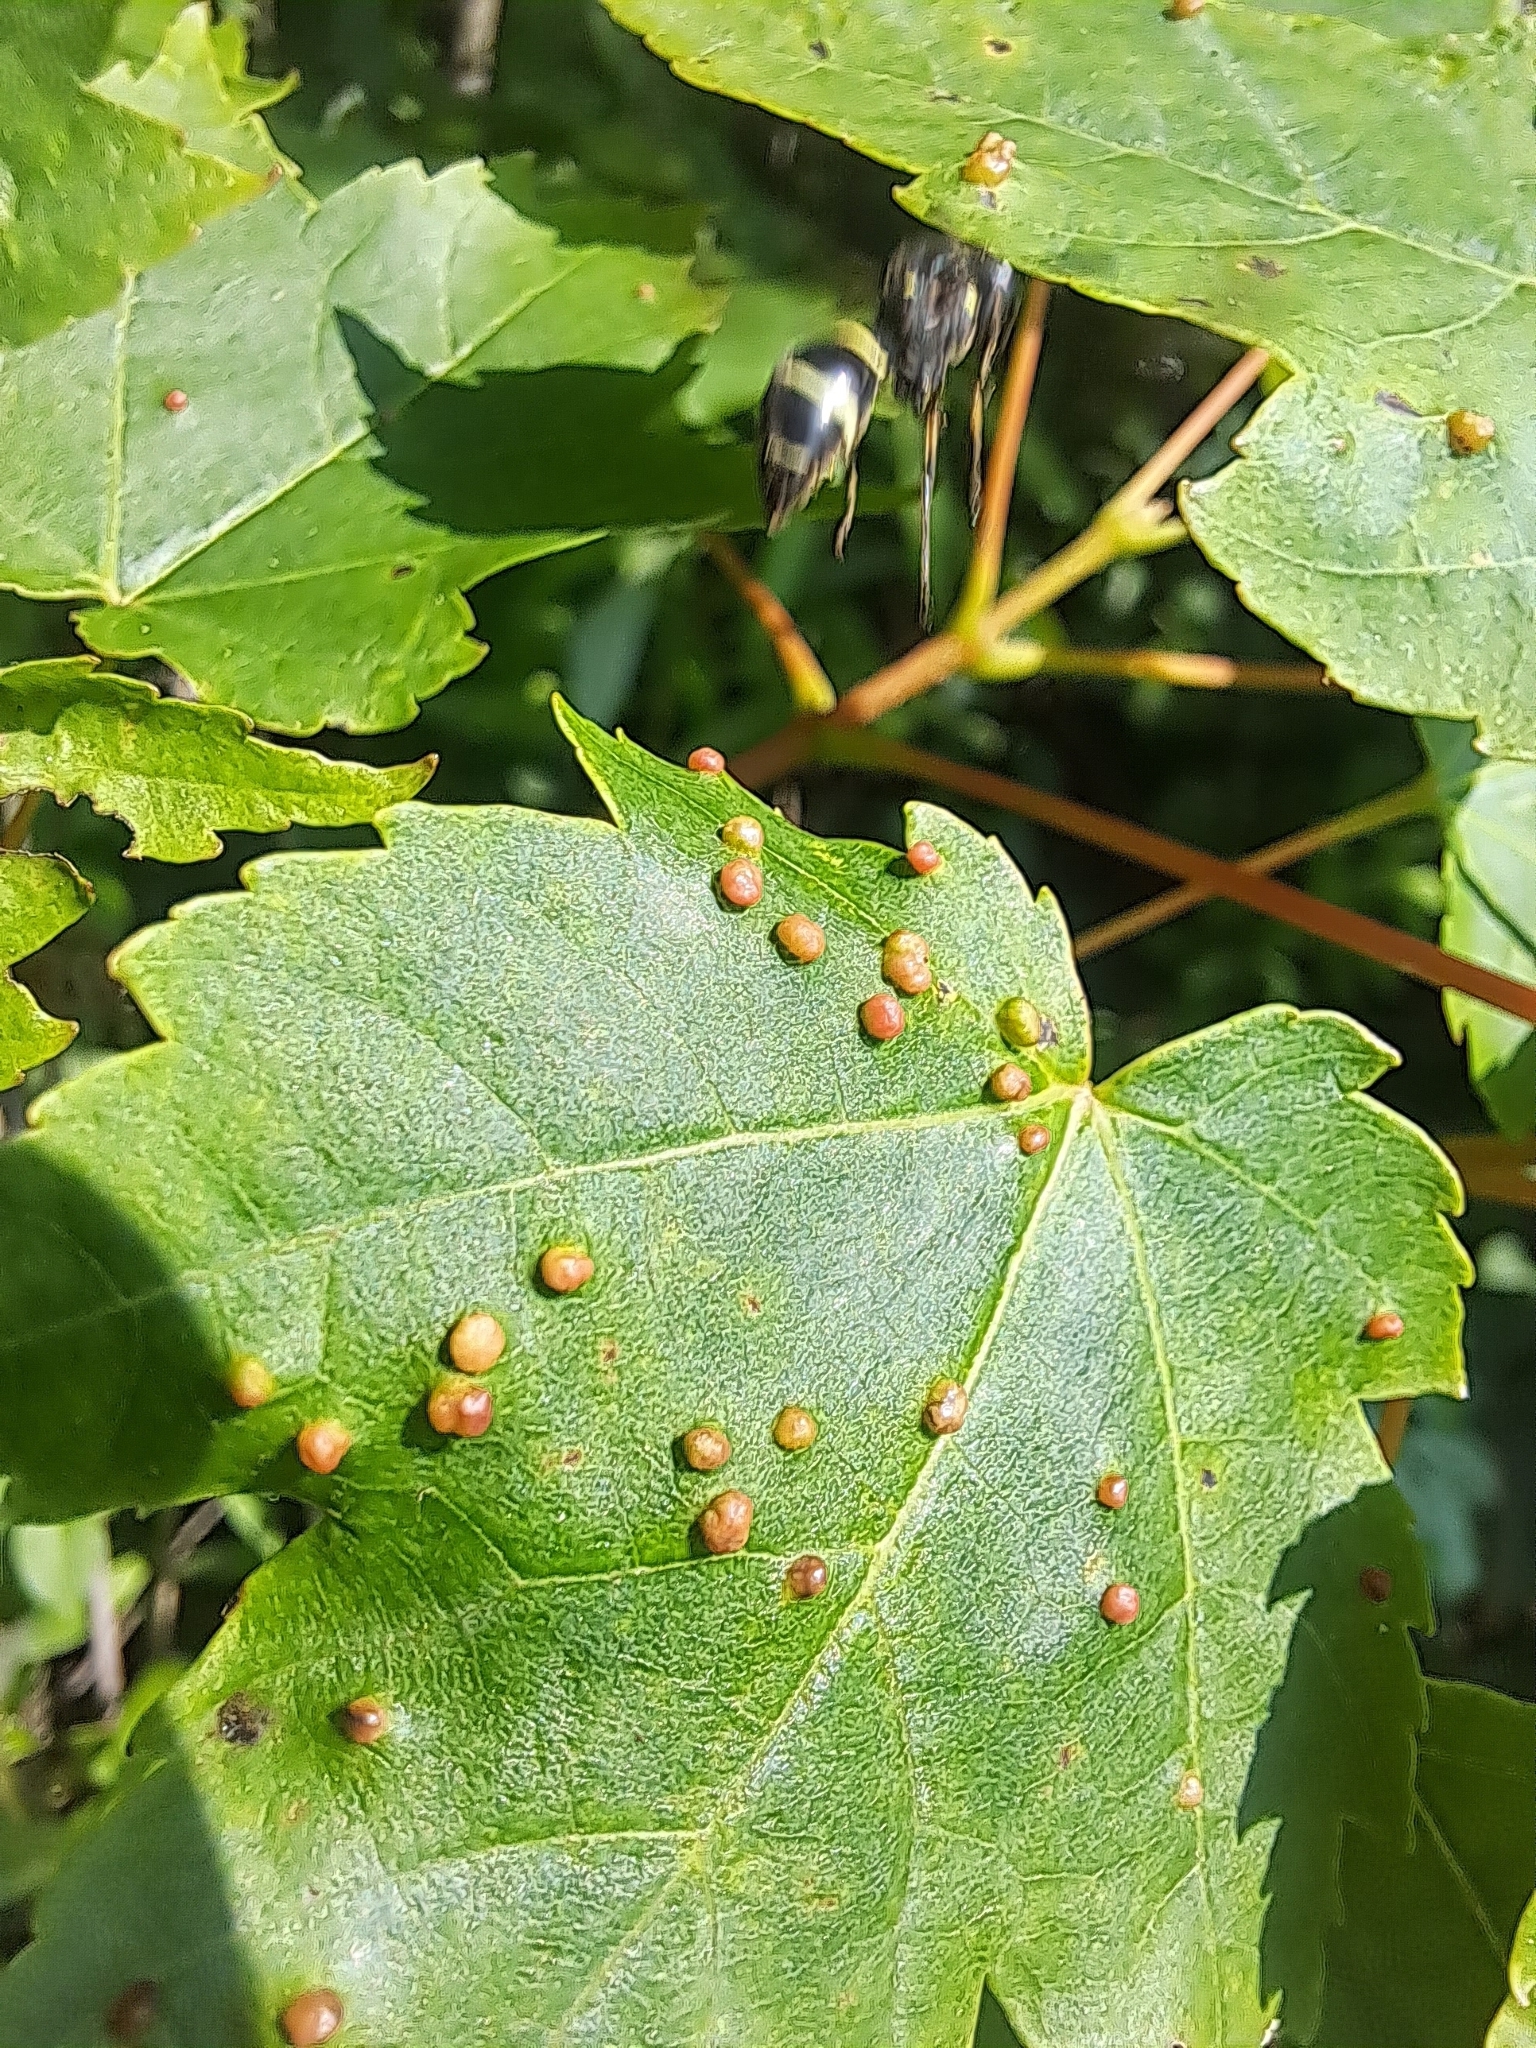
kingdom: Animalia
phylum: Arthropoda
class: Arachnida
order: Trombidiformes
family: Eriophyidae
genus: Vasates
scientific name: Vasates quadripedes
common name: Maple bladder gall mite
